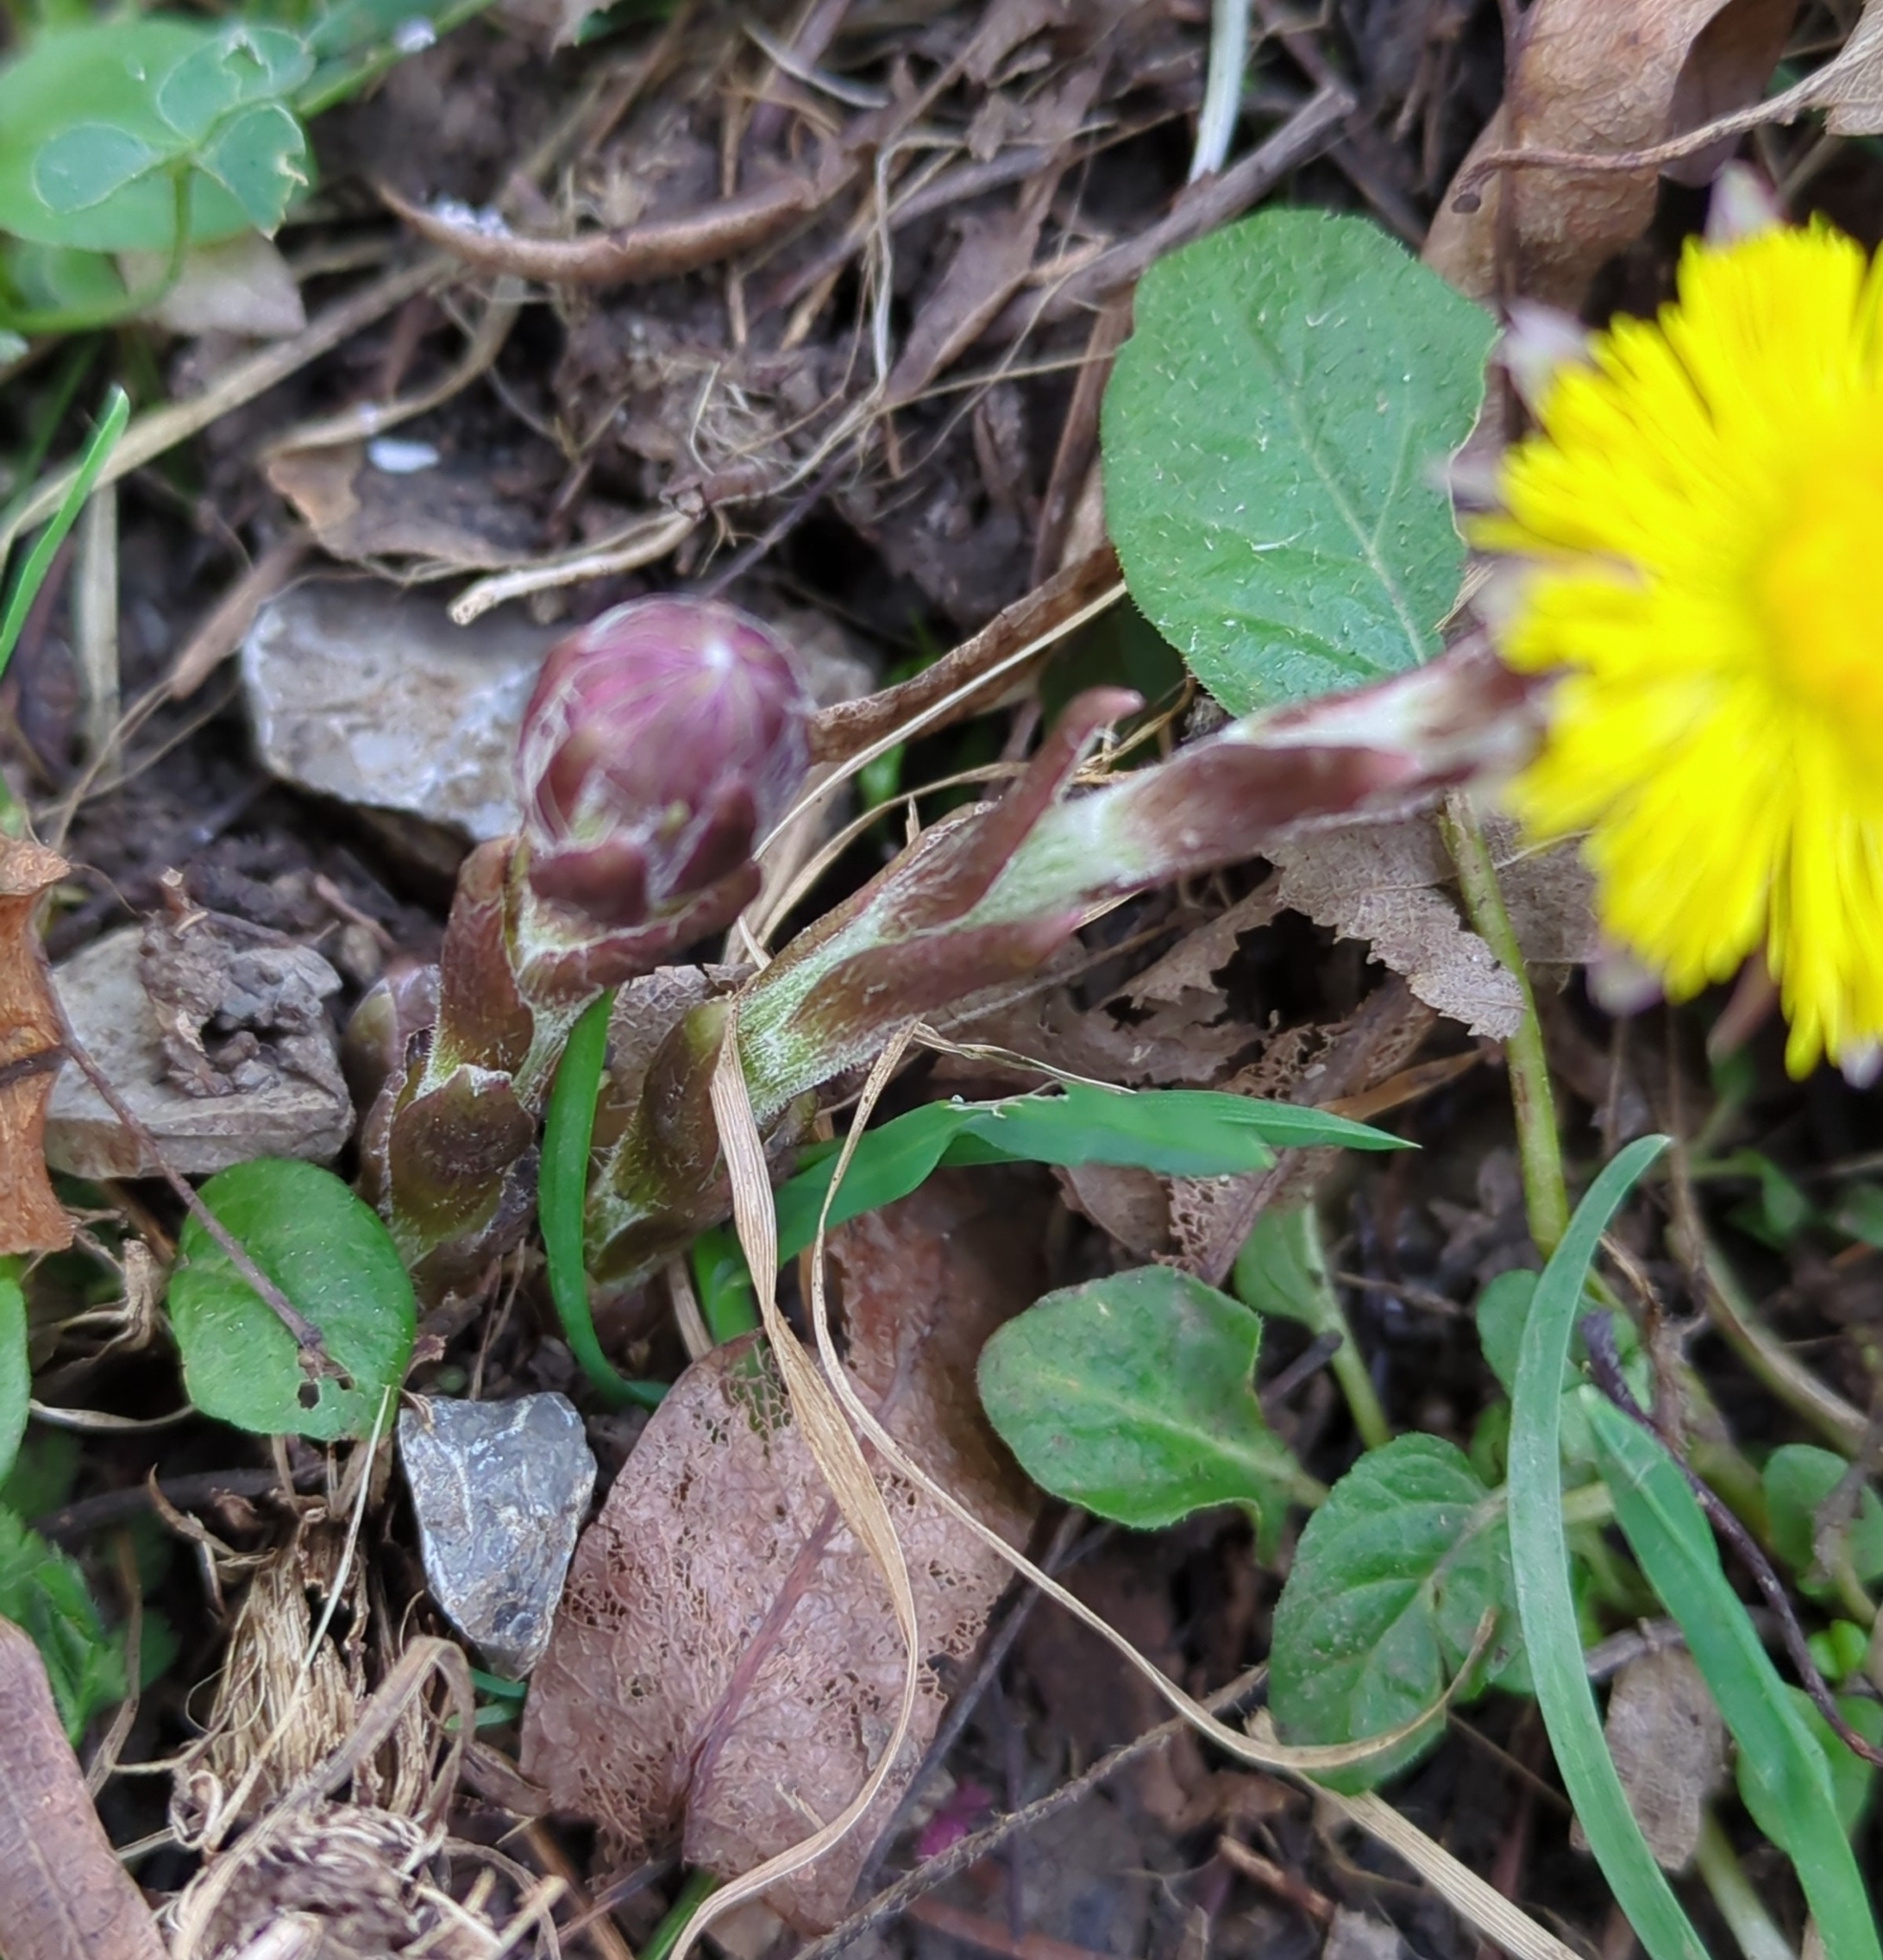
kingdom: Plantae
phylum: Tracheophyta
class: Magnoliopsida
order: Asterales
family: Asteraceae
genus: Tussilago
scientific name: Tussilago farfara
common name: Coltsfoot
